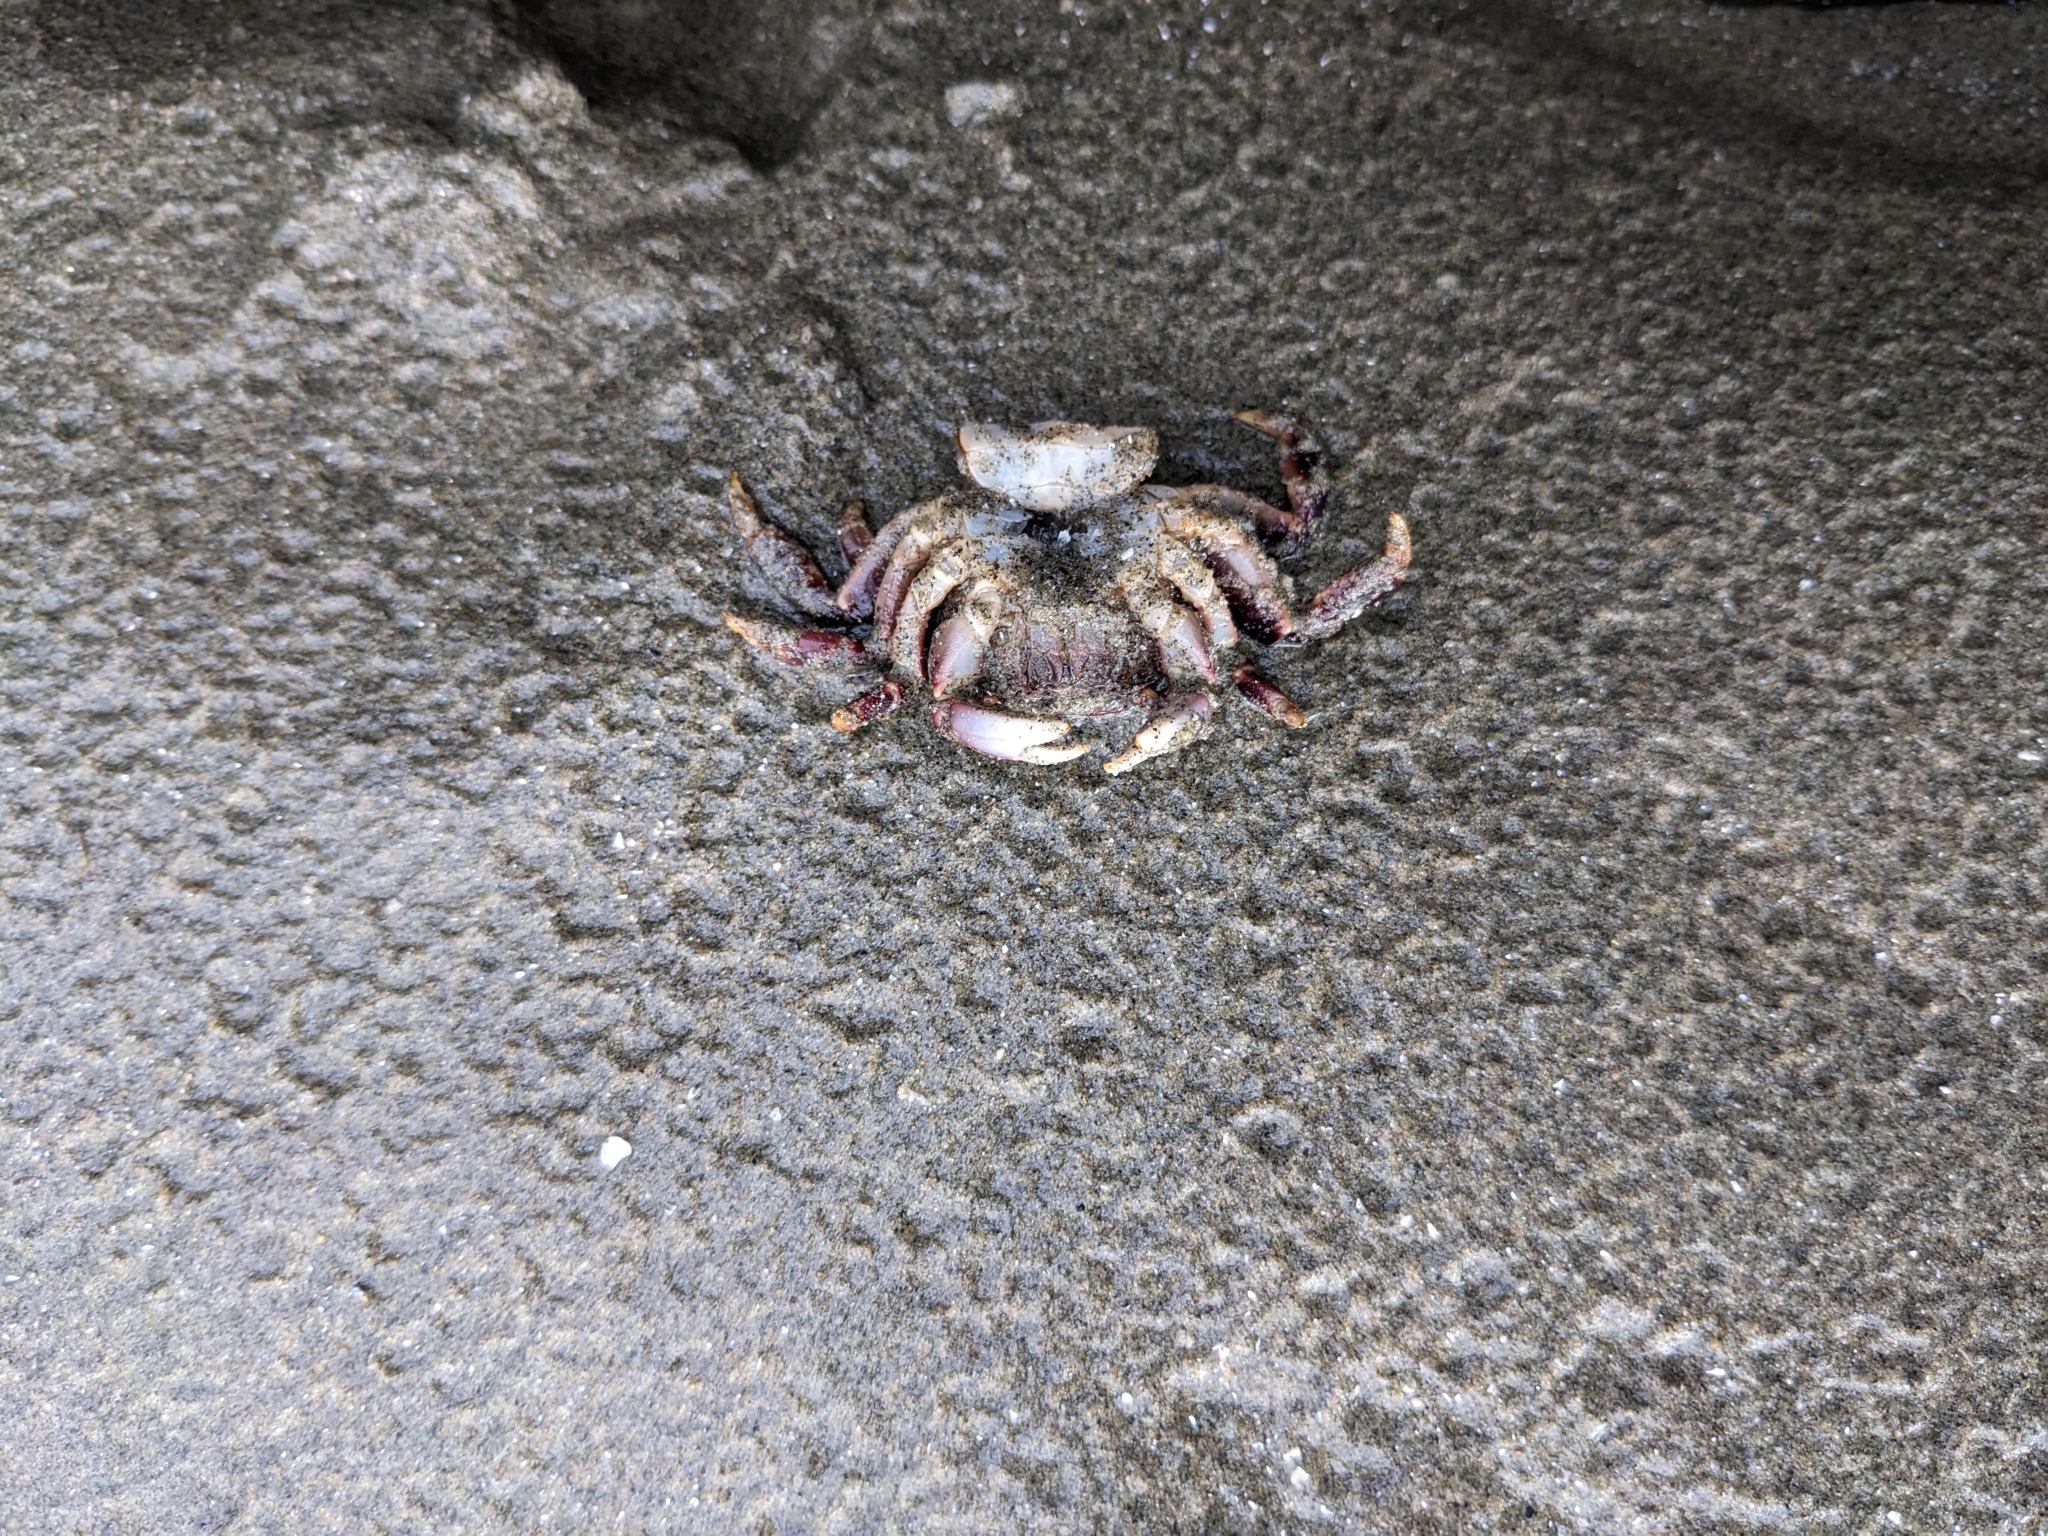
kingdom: Animalia
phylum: Arthropoda
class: Malacostraca
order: Decapoda
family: Varunidae
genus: Hemigrapsus
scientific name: Hemigrapsus nudus
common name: Purple shore crab
